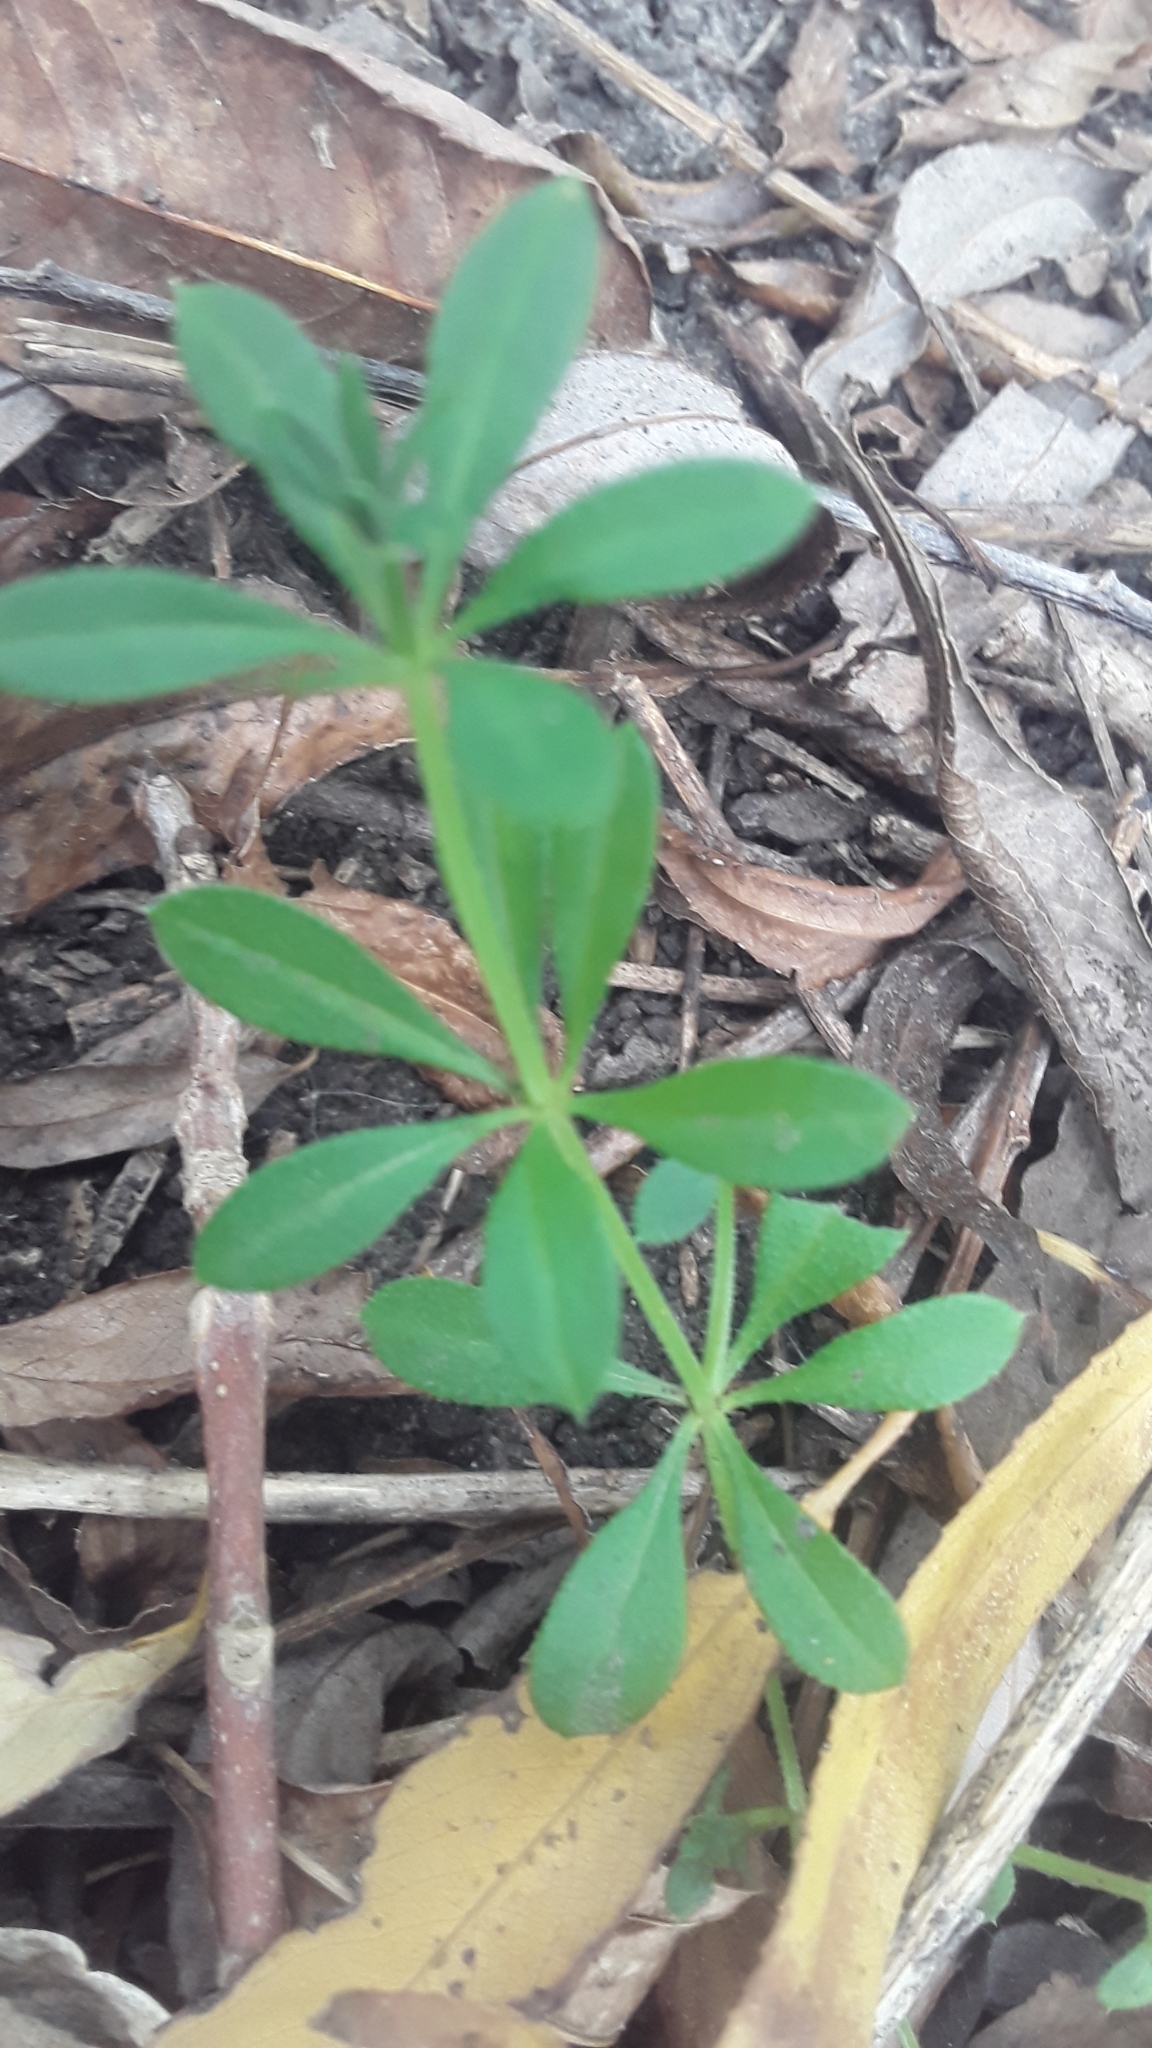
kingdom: Plantae
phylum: Tracheophyta
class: Magnoliopsida
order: Gentianales
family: Rubiaceae
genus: Galium
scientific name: Galium aparine
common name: Cleavers
